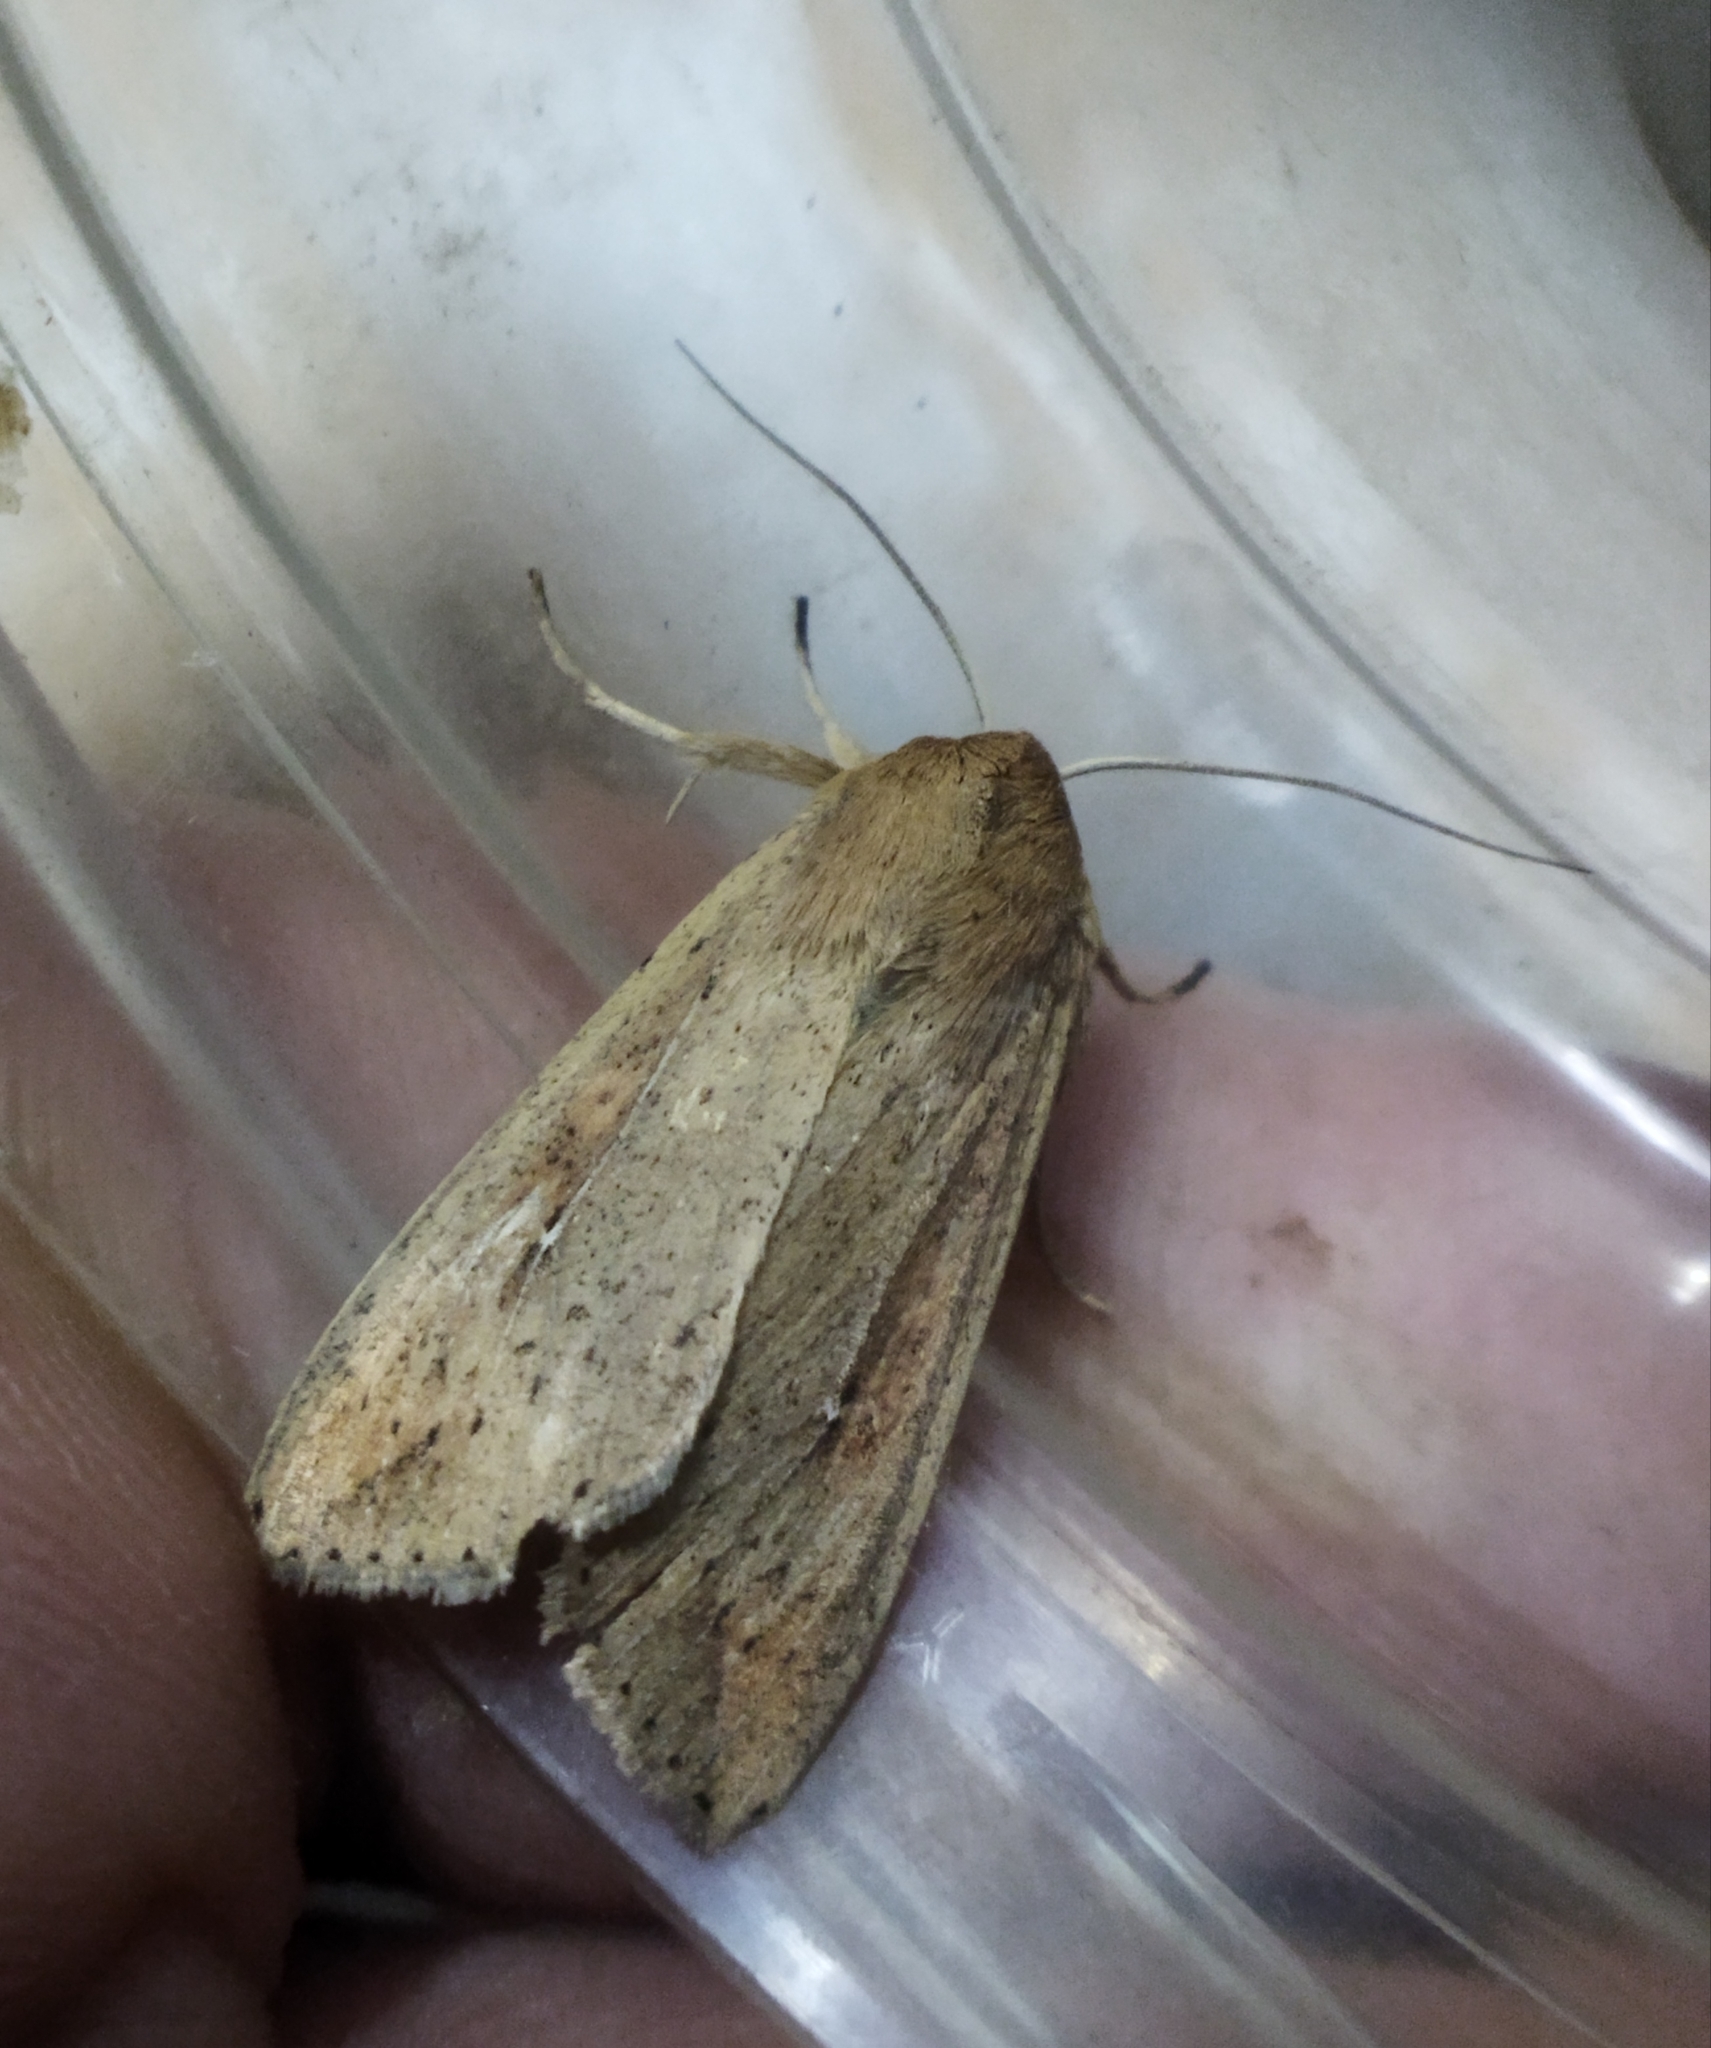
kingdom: Animalia
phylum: Arthropoda
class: Insecta
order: Lepidoptera
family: Noctuidae
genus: Mythimna
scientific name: Mythimna unipuncta
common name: White-speck
